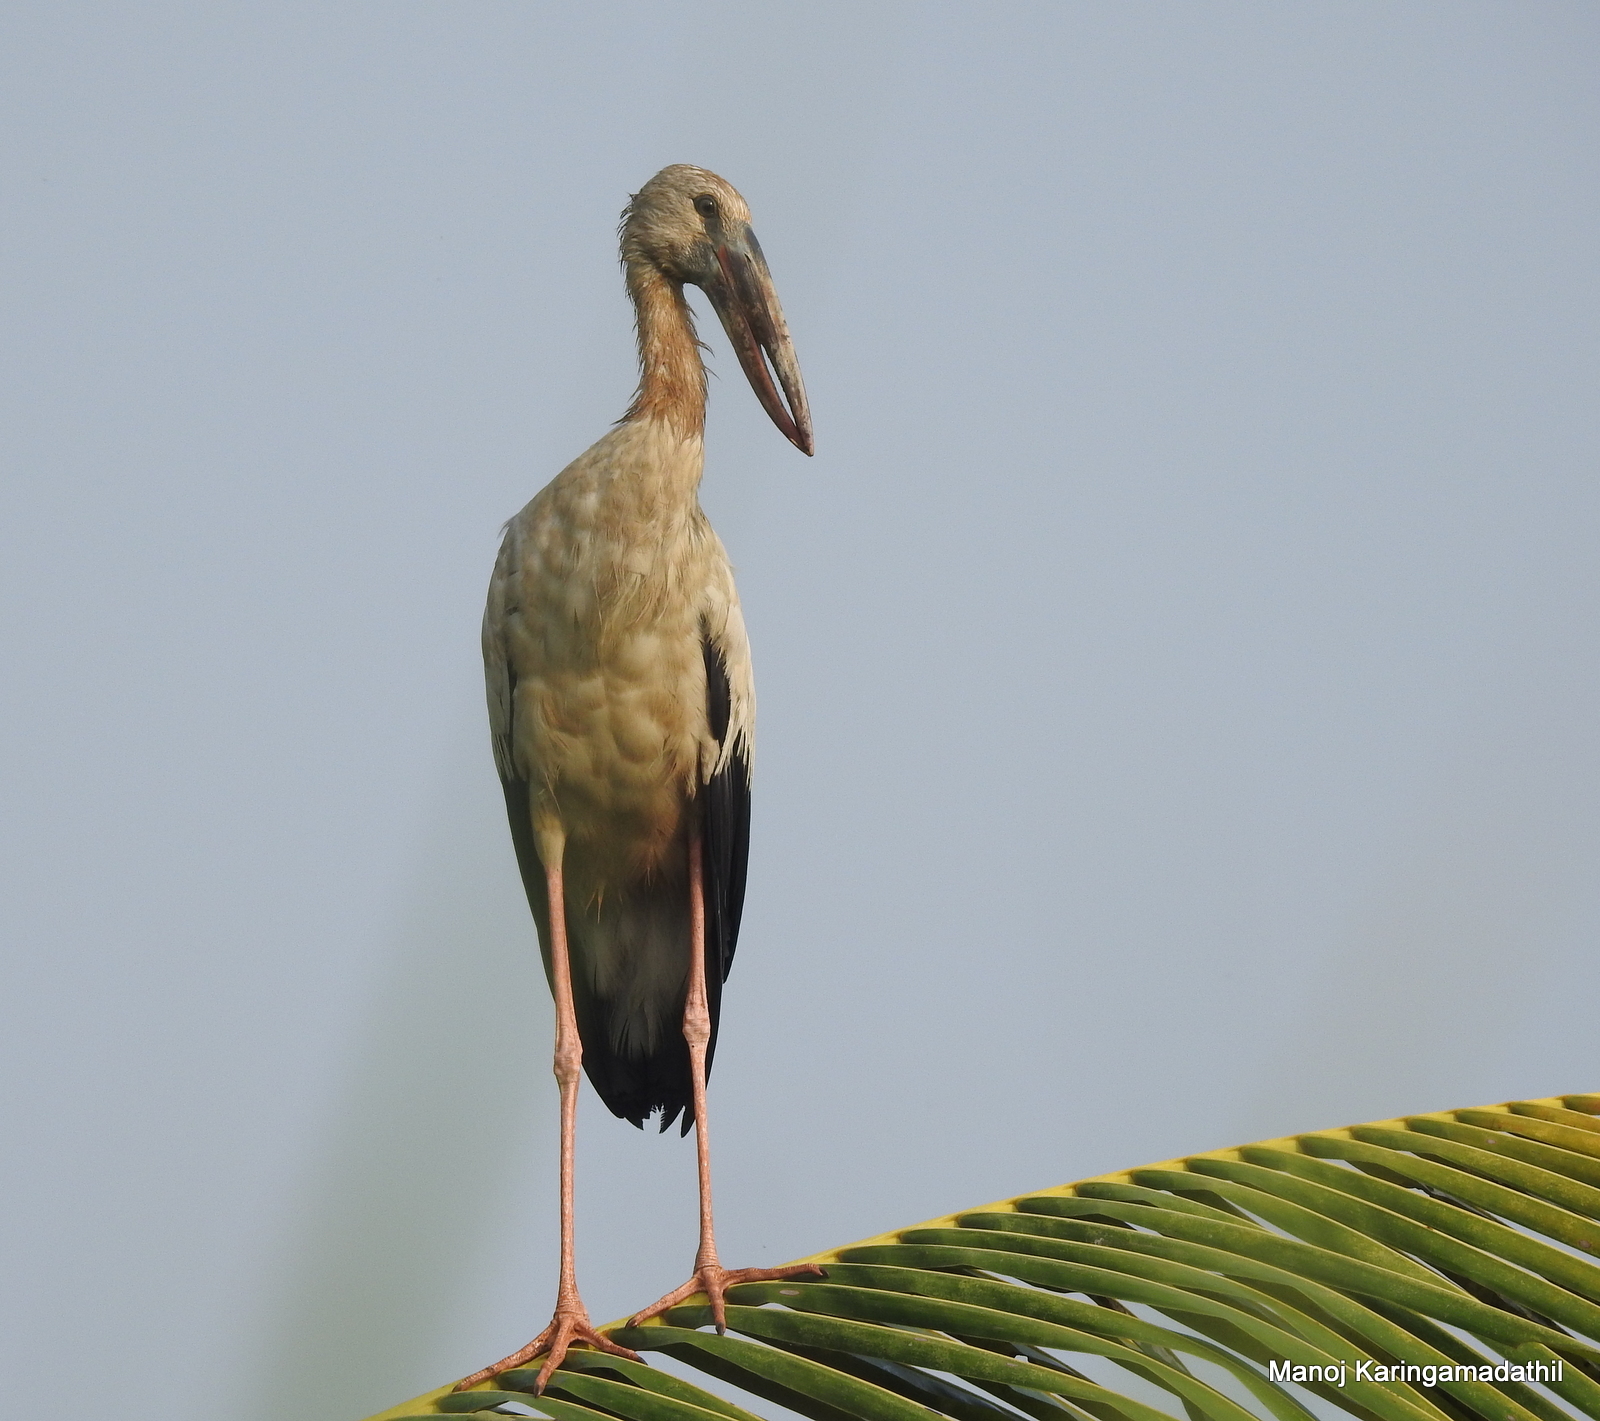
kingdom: Animalia
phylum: Chordata
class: Aves
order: Ciconiiformes
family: Ciconiidae
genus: Anastomus
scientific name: Anastomus oscitans
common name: Asian openbill
